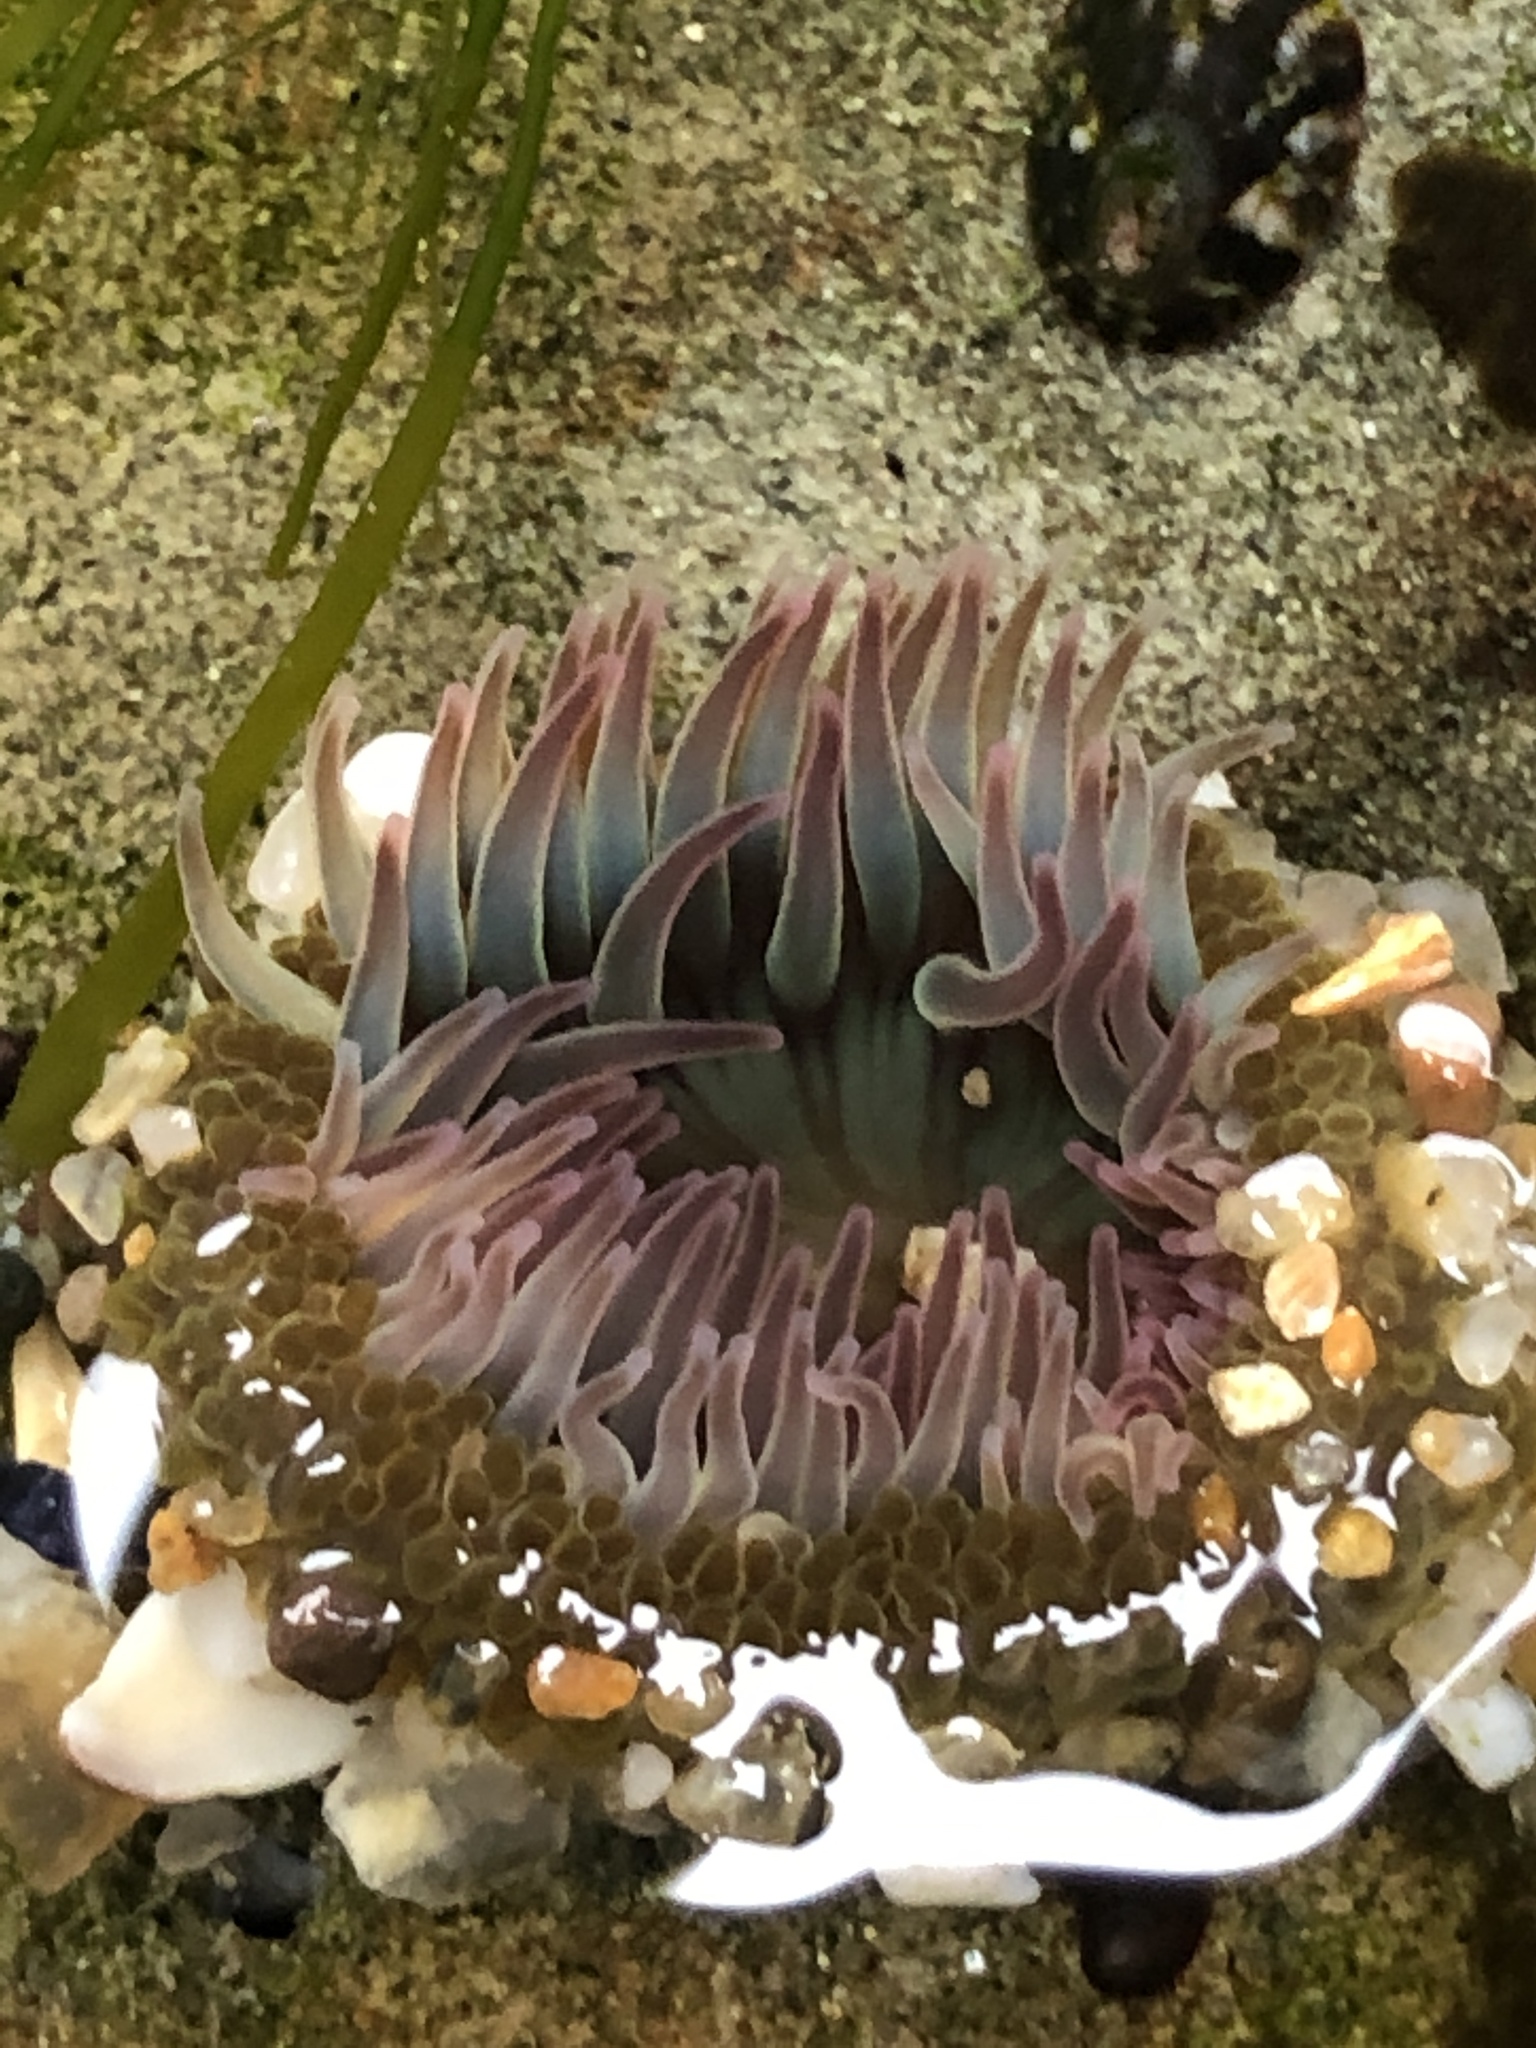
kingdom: Animalia
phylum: Cnidaria
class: Anthozoa
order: Actiniaria
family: Actiniidae
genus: Anthopleura
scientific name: Anthopleura elegantissima
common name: Clonal anemone
